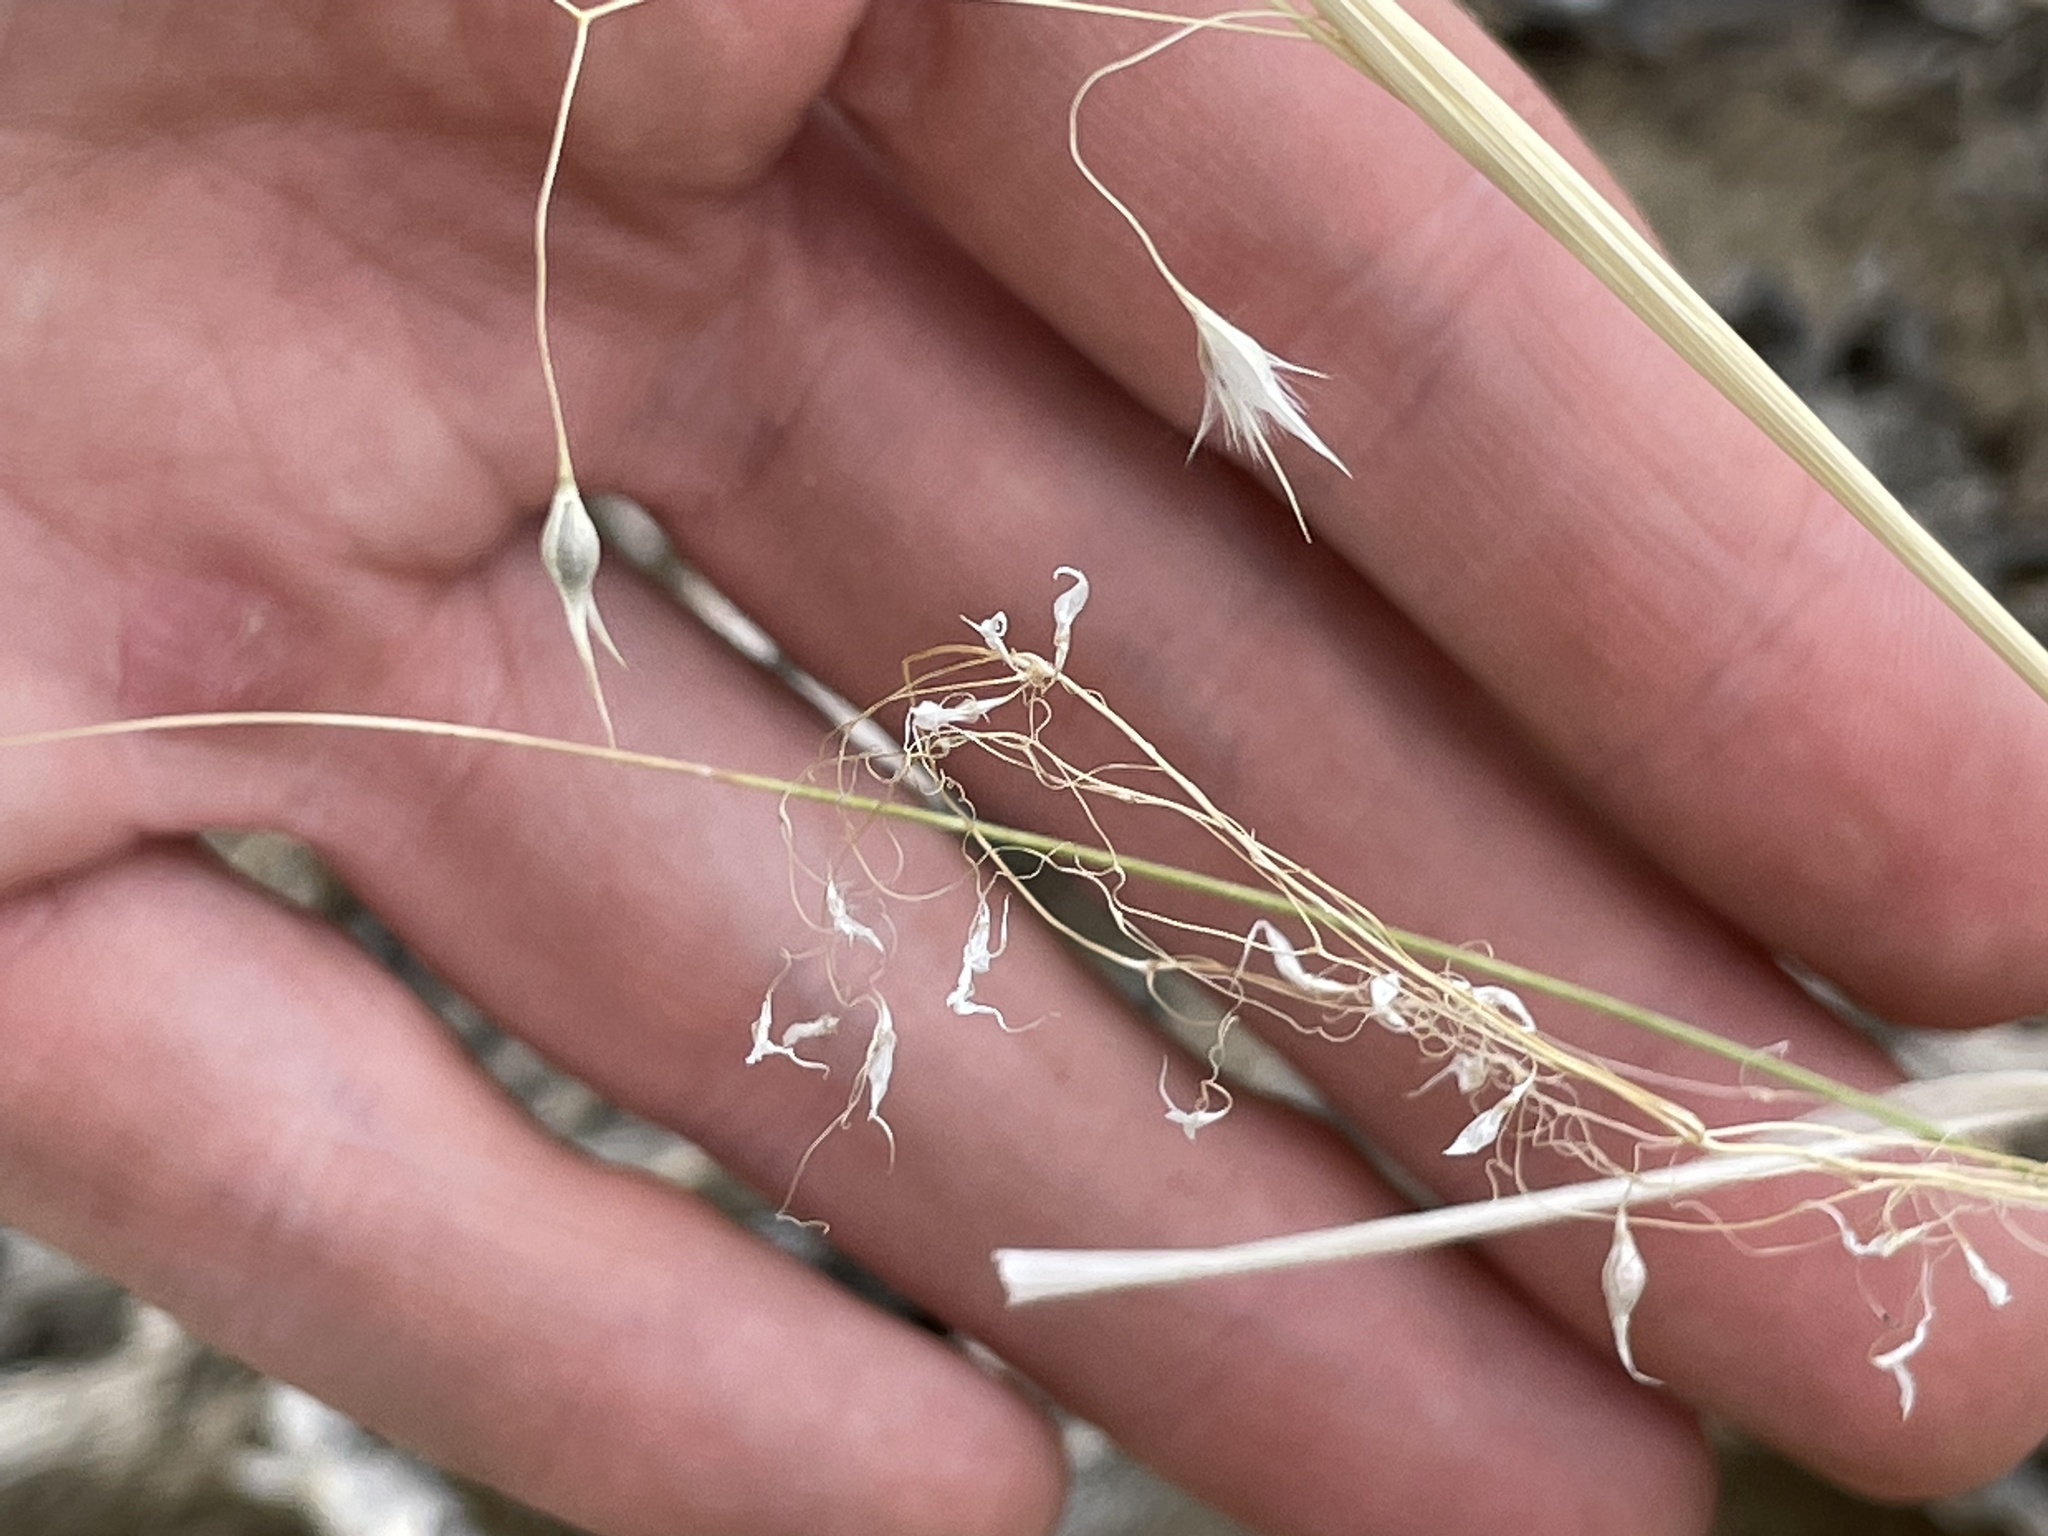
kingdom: Plantae
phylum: Tracheophyta
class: Liliopsida
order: Poales
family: Poaceae
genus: Eriocoma
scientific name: Eriocoma hymenoides
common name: Indian mountain ricegrass
